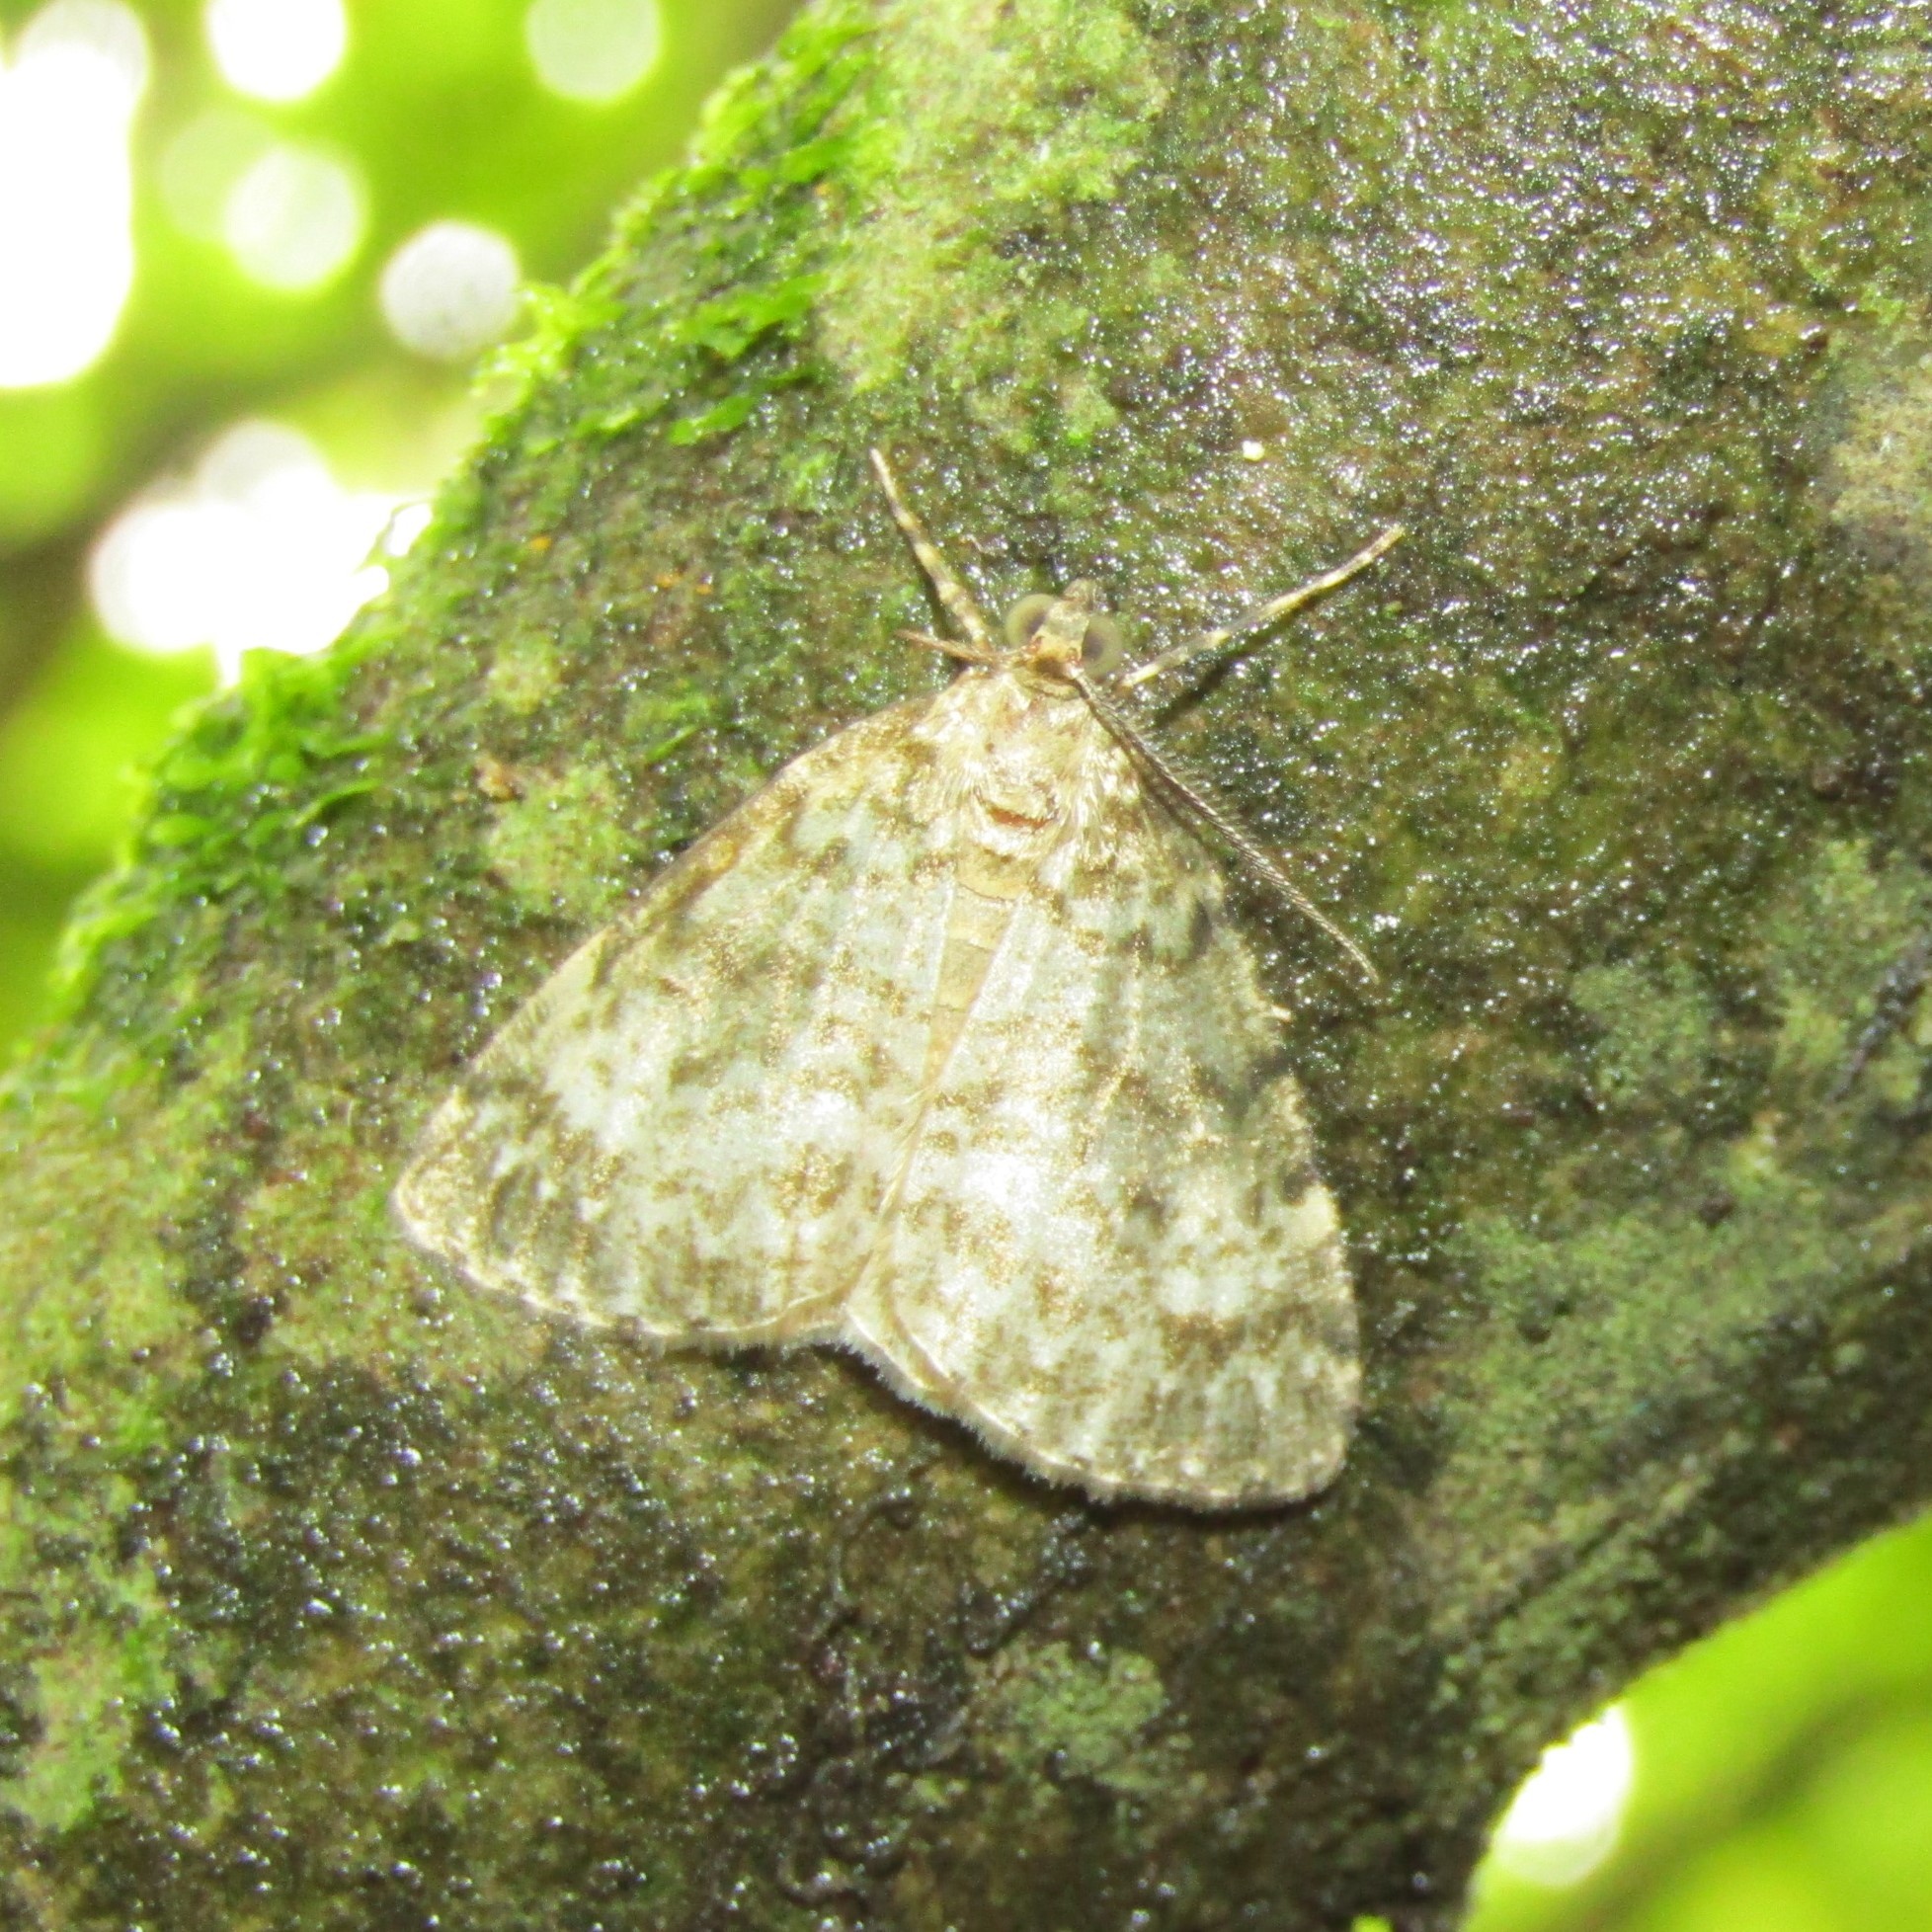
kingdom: Animalia
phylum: Arthropoda
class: Insecta
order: Lepidoptera
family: Geometridae
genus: Pseudocoremia
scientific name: Pseudocoremia indistincta
